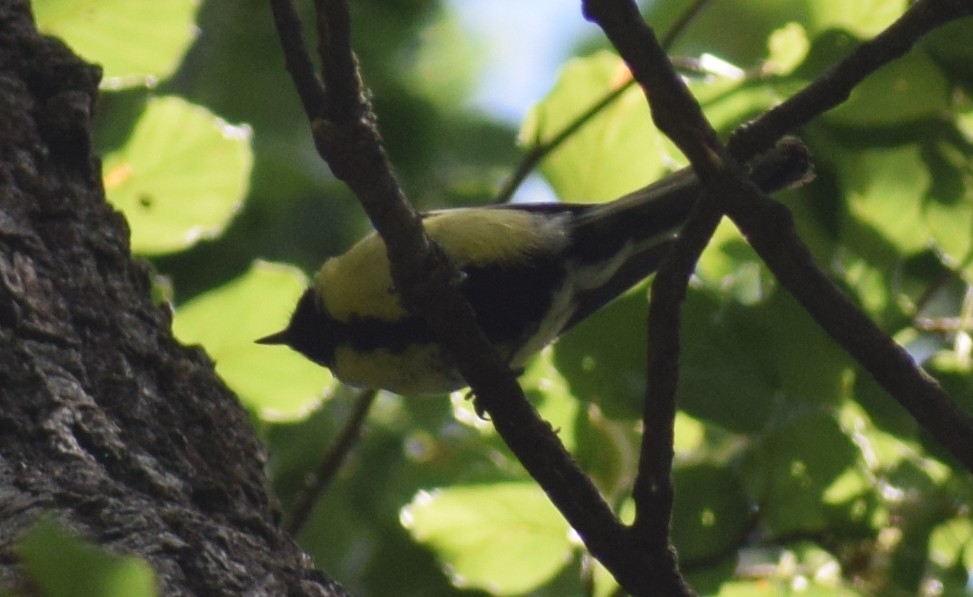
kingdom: Animalia
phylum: Chordata
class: Aves
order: Passeriformes
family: Paridae
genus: Parus
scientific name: Parus major
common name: Great tit
